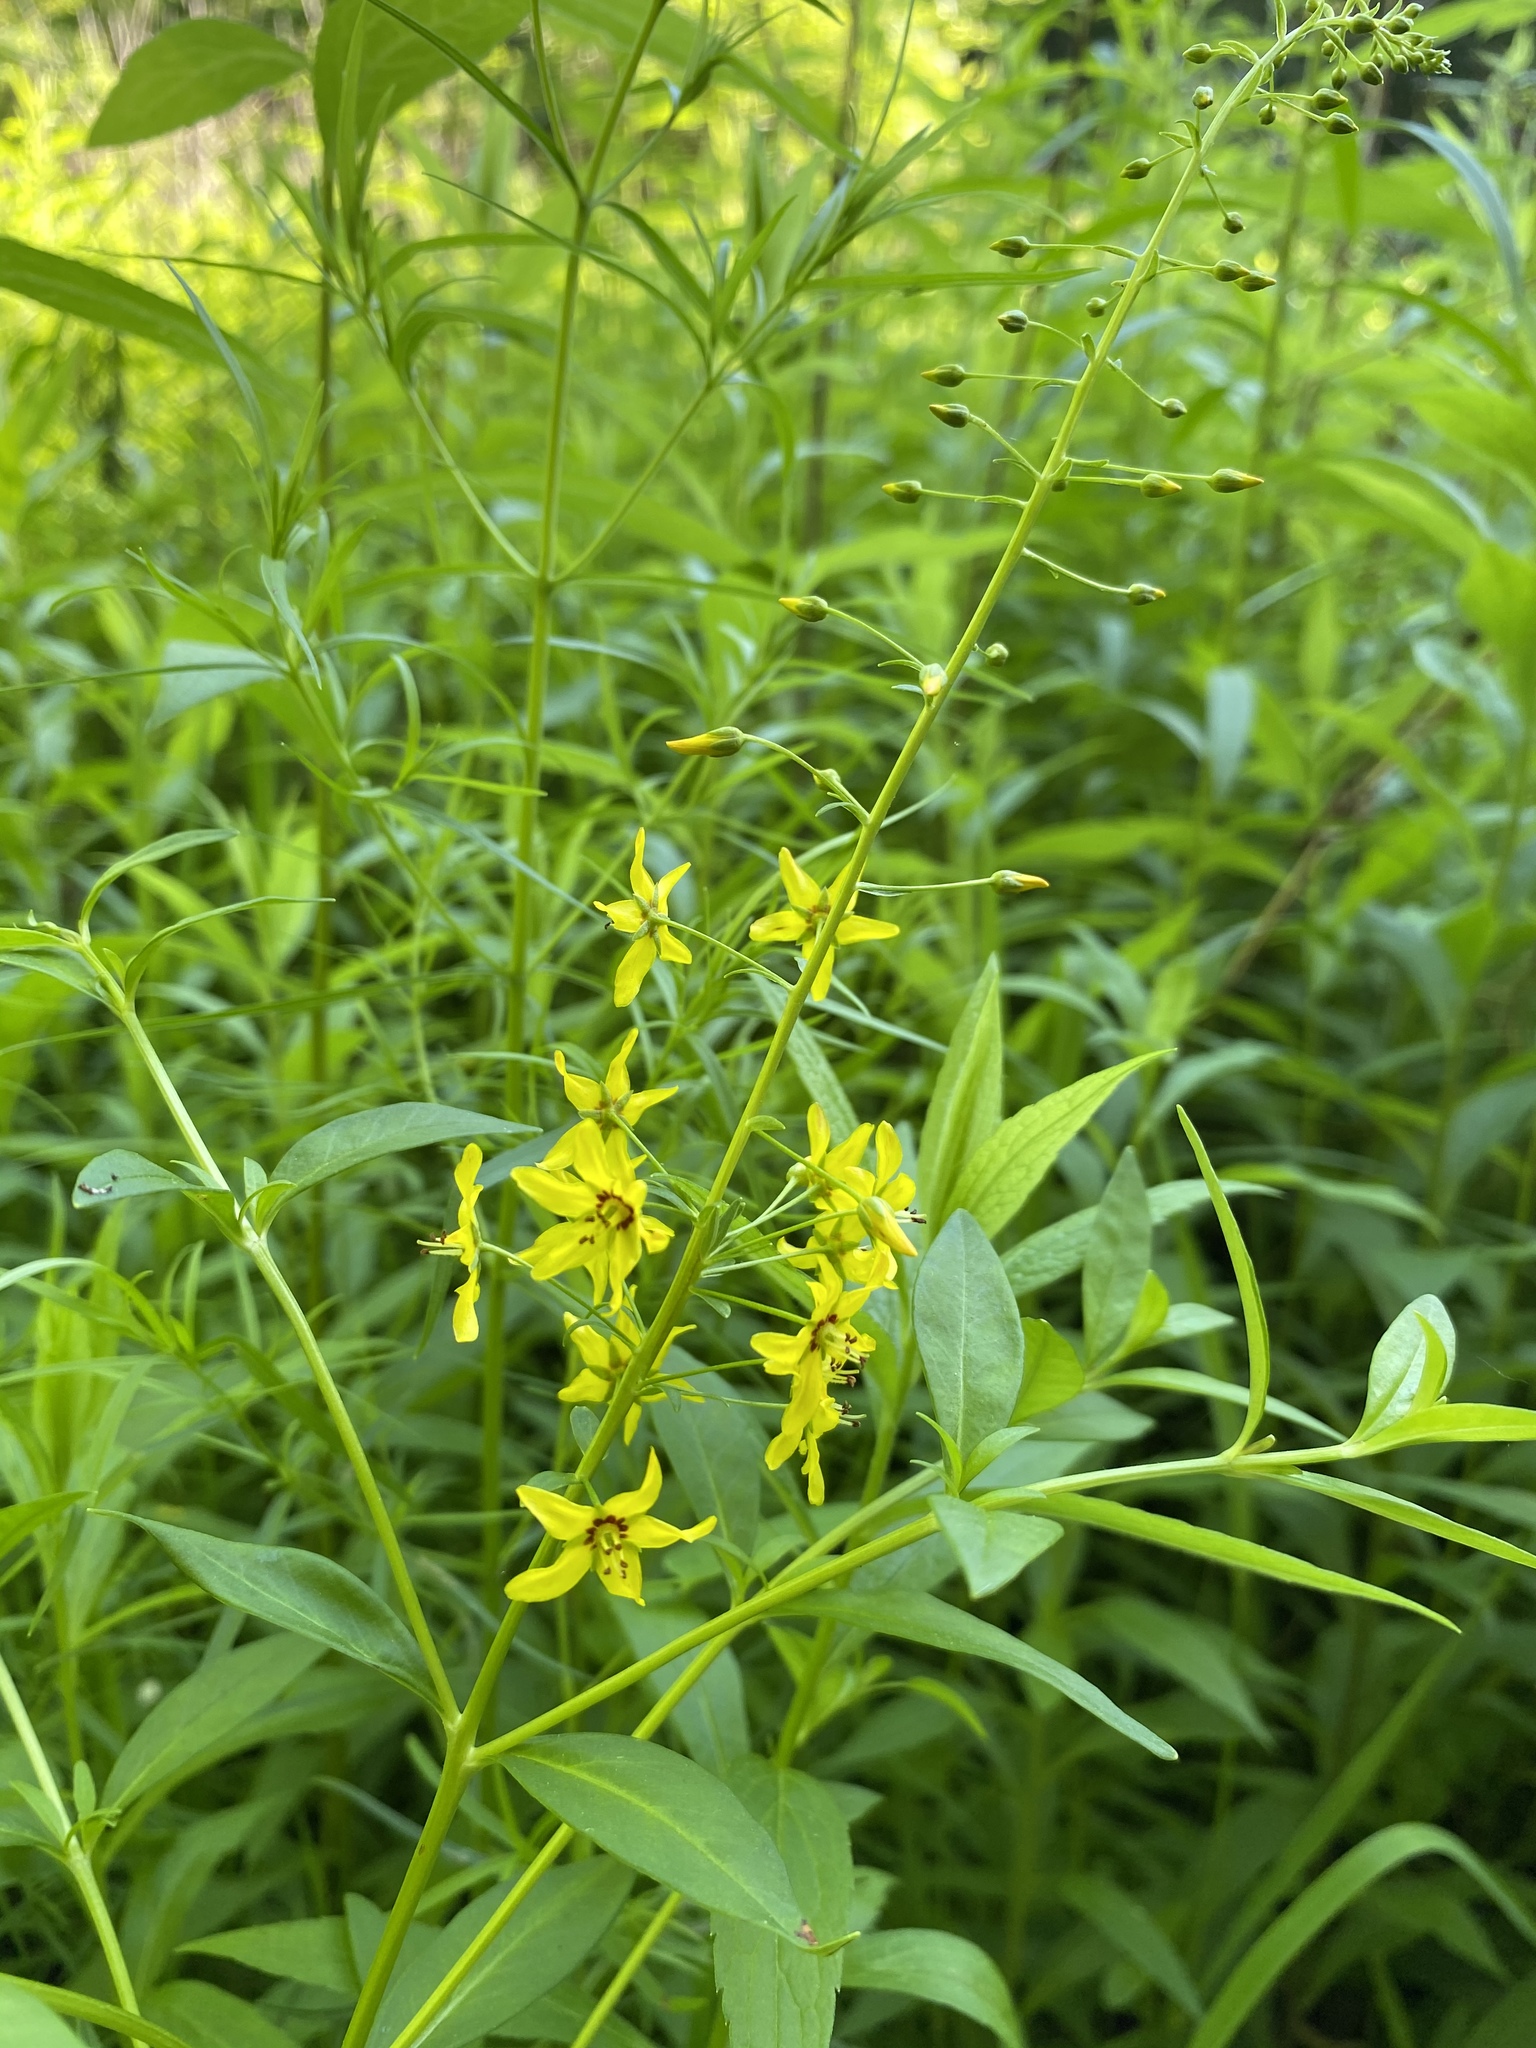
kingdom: Plantae
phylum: Tracheophyta
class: Magnoliopsida
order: Ericales
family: Primulaceae
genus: Lysimachia
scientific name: Lysimachia terrestris
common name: Lake loosestrife
